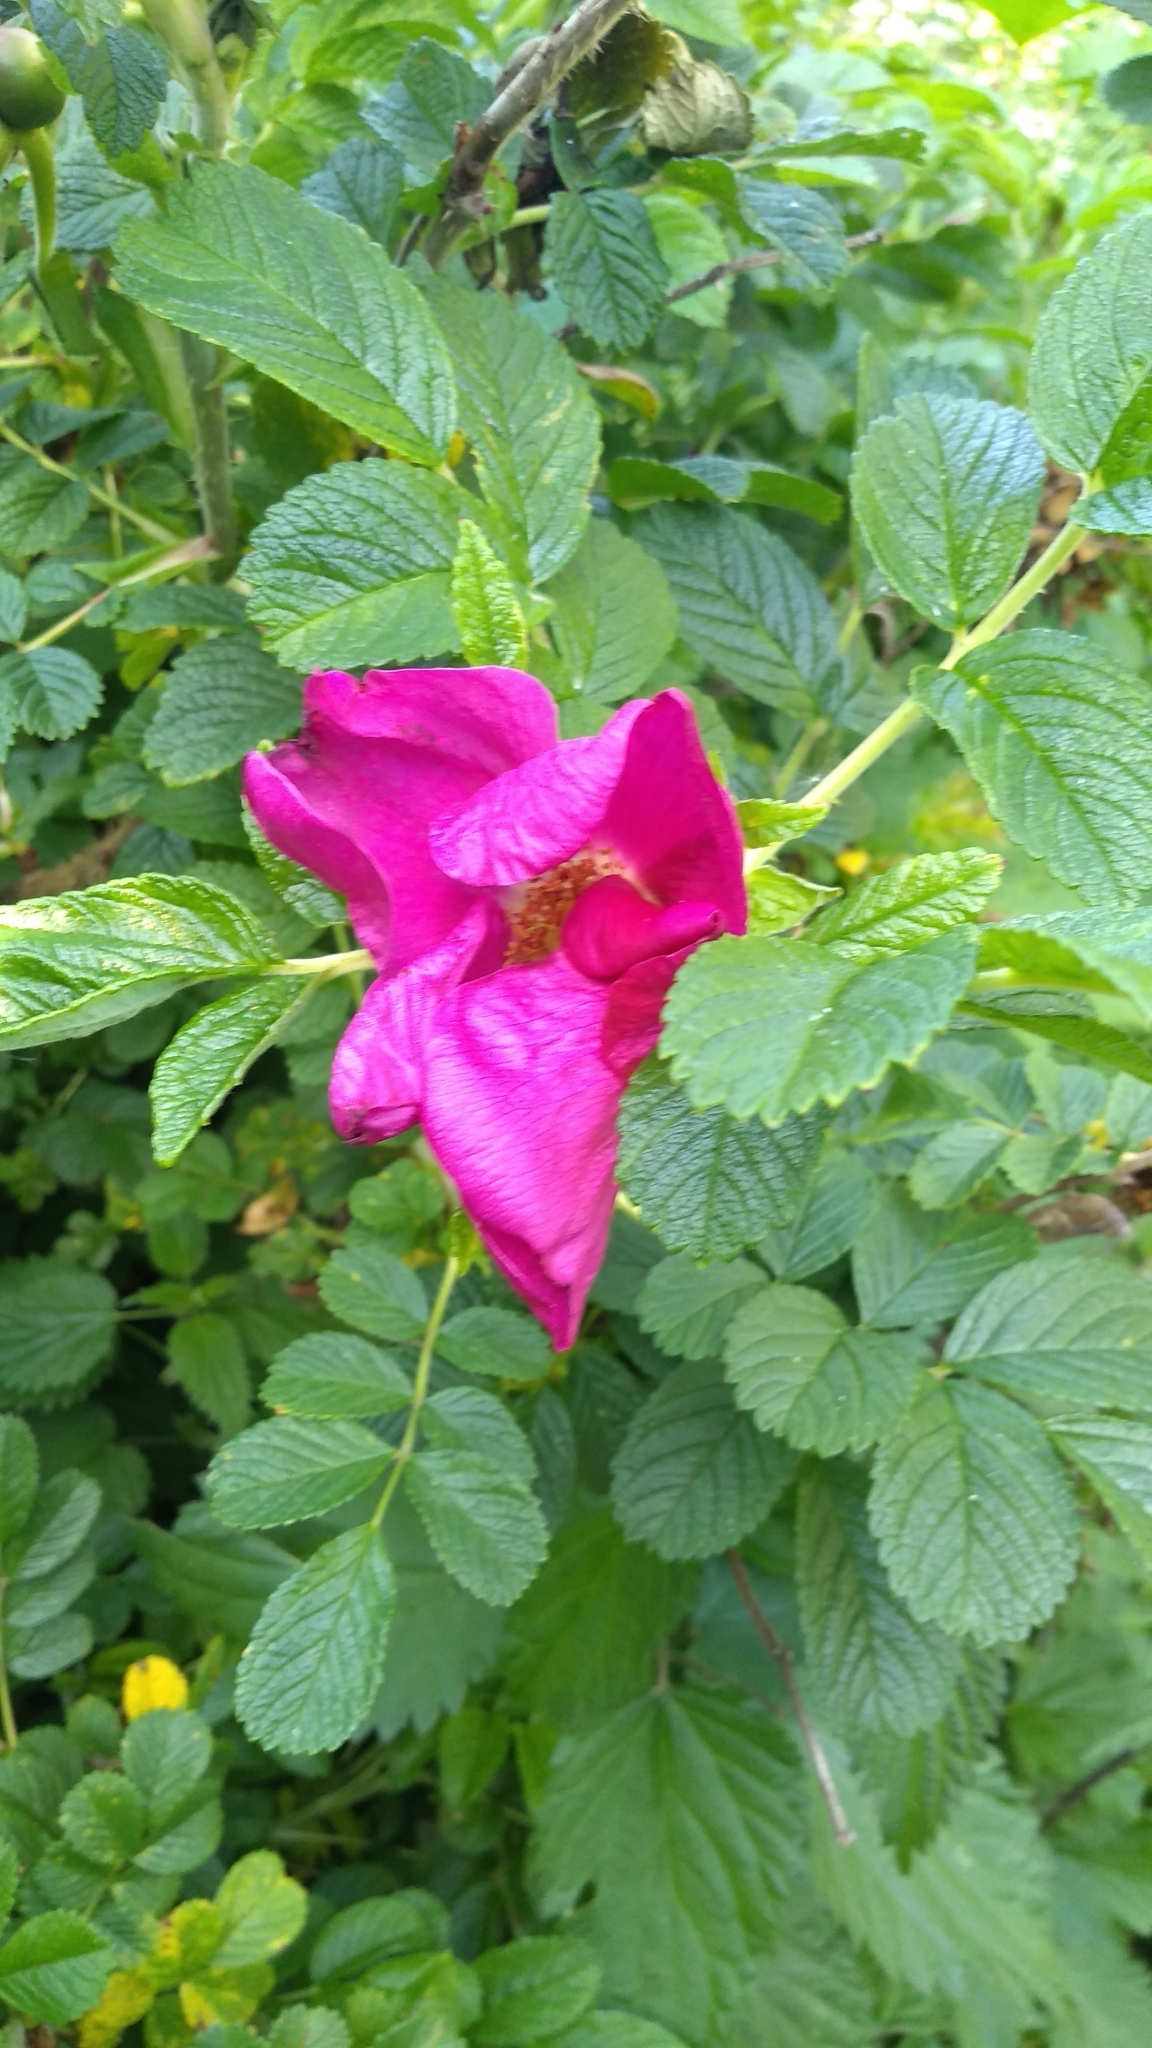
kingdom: Plantae
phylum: Tracheophyta
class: Magnoliopsida
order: Rosales
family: Rosaceae
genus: Rosa
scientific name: Rosa rugosa
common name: Japanese rose
